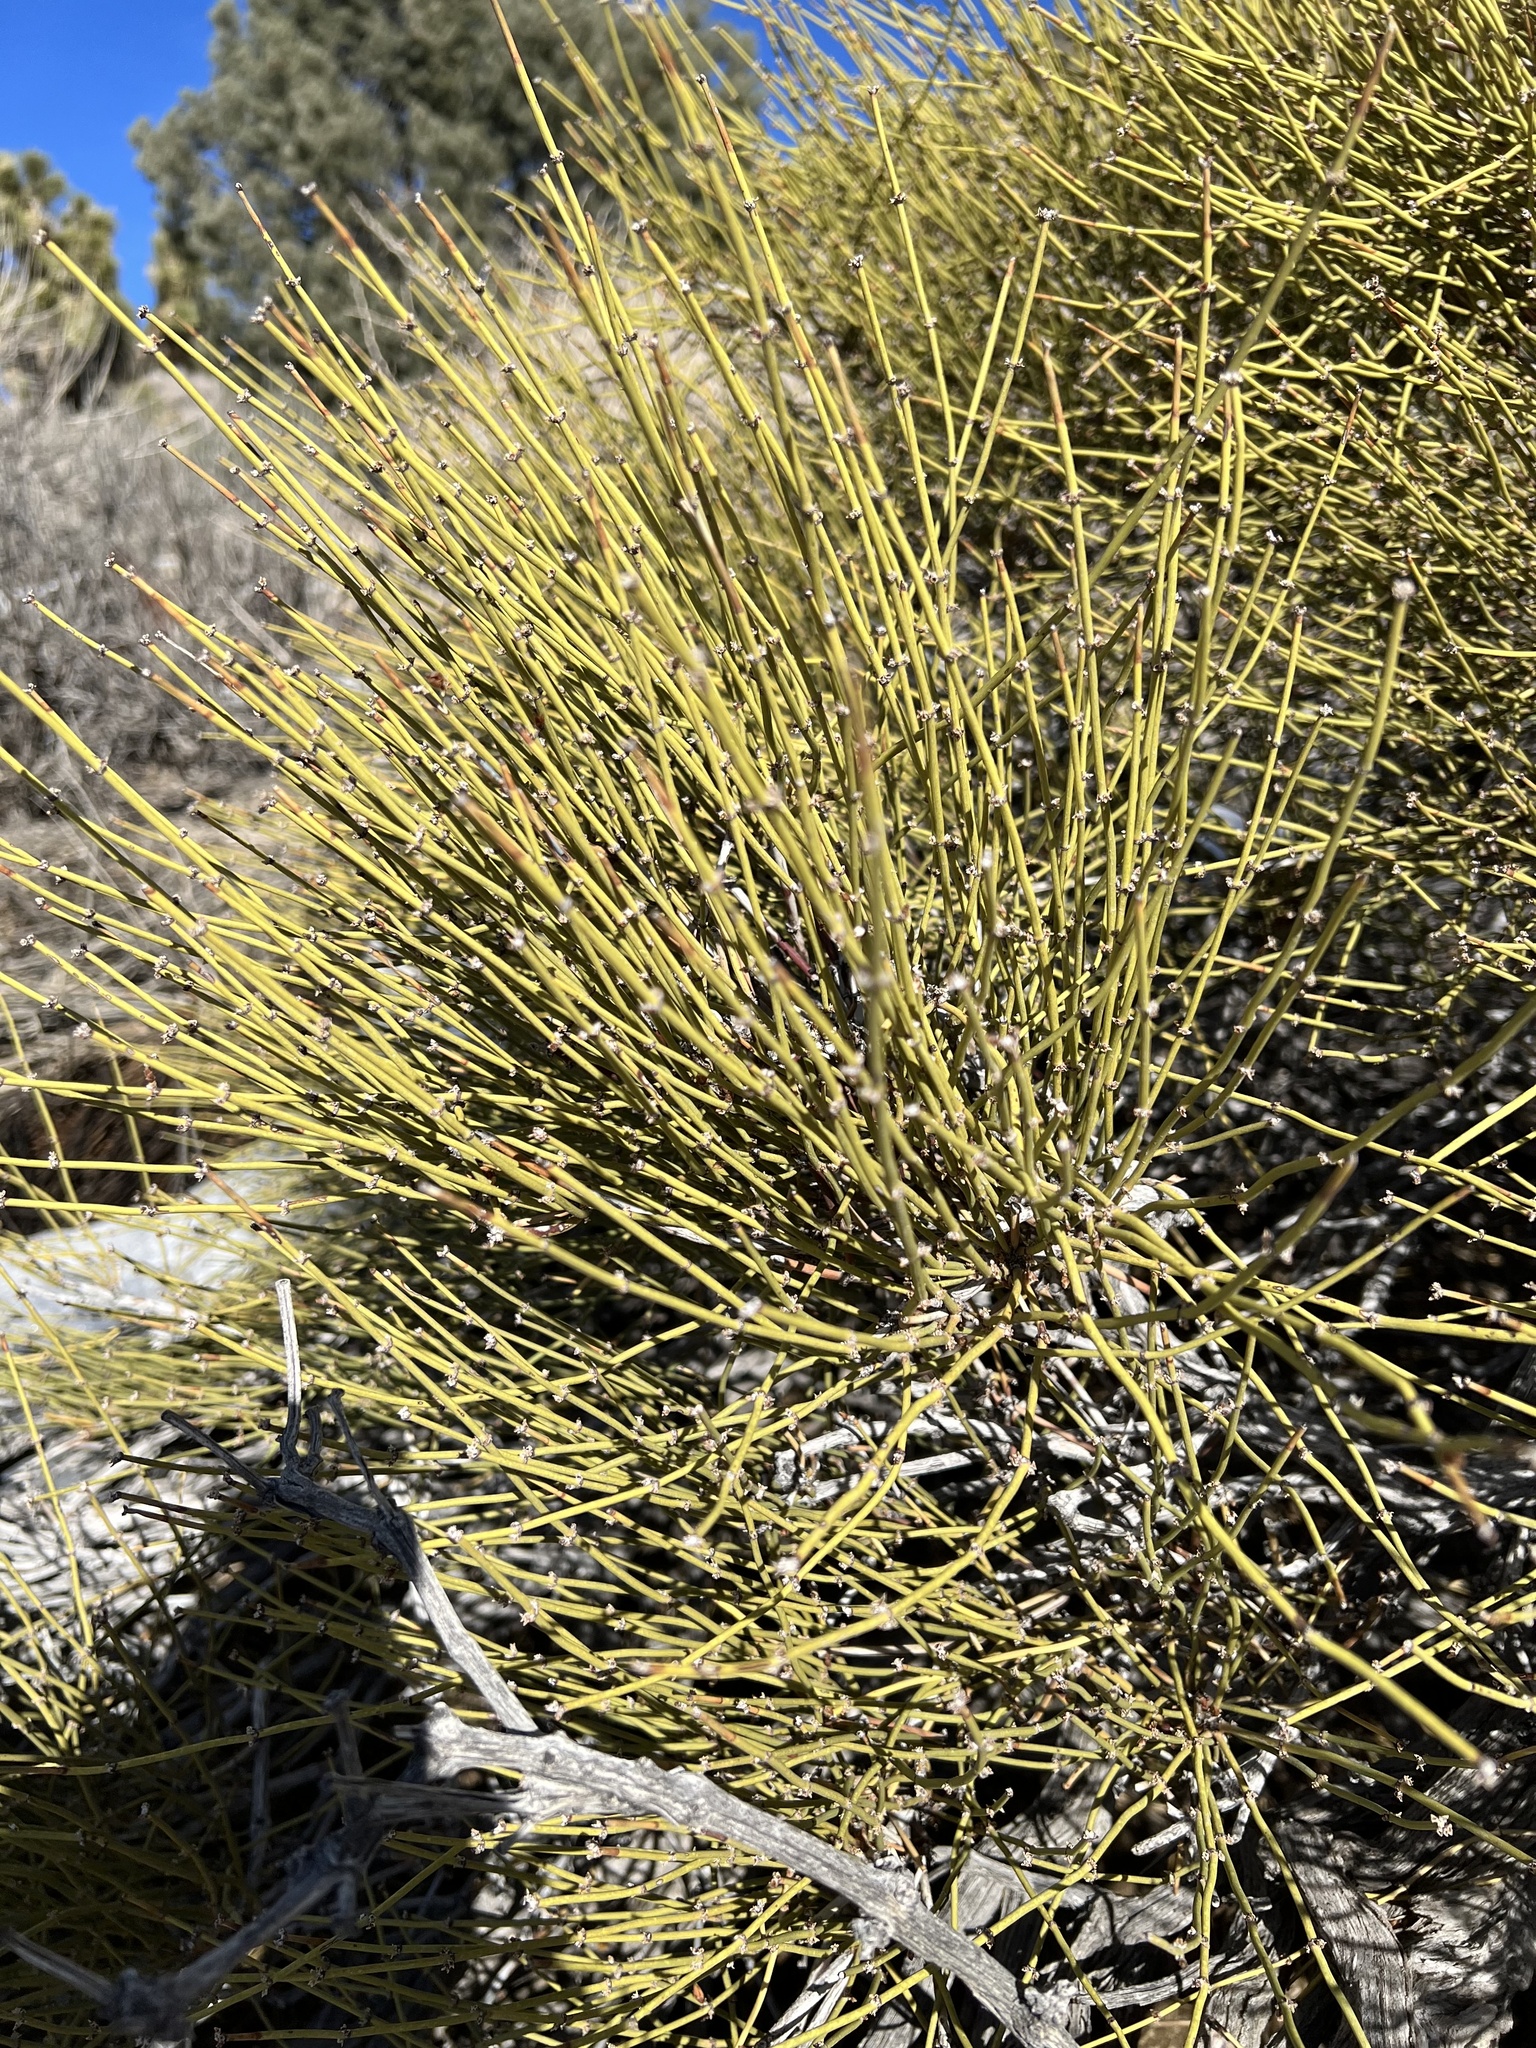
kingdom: Plantae
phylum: Tracheophyta
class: Gnetopsida
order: Ephedrales
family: Ephedraceae
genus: Ephedra
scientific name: Ephedra viridis
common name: Green ephedra
